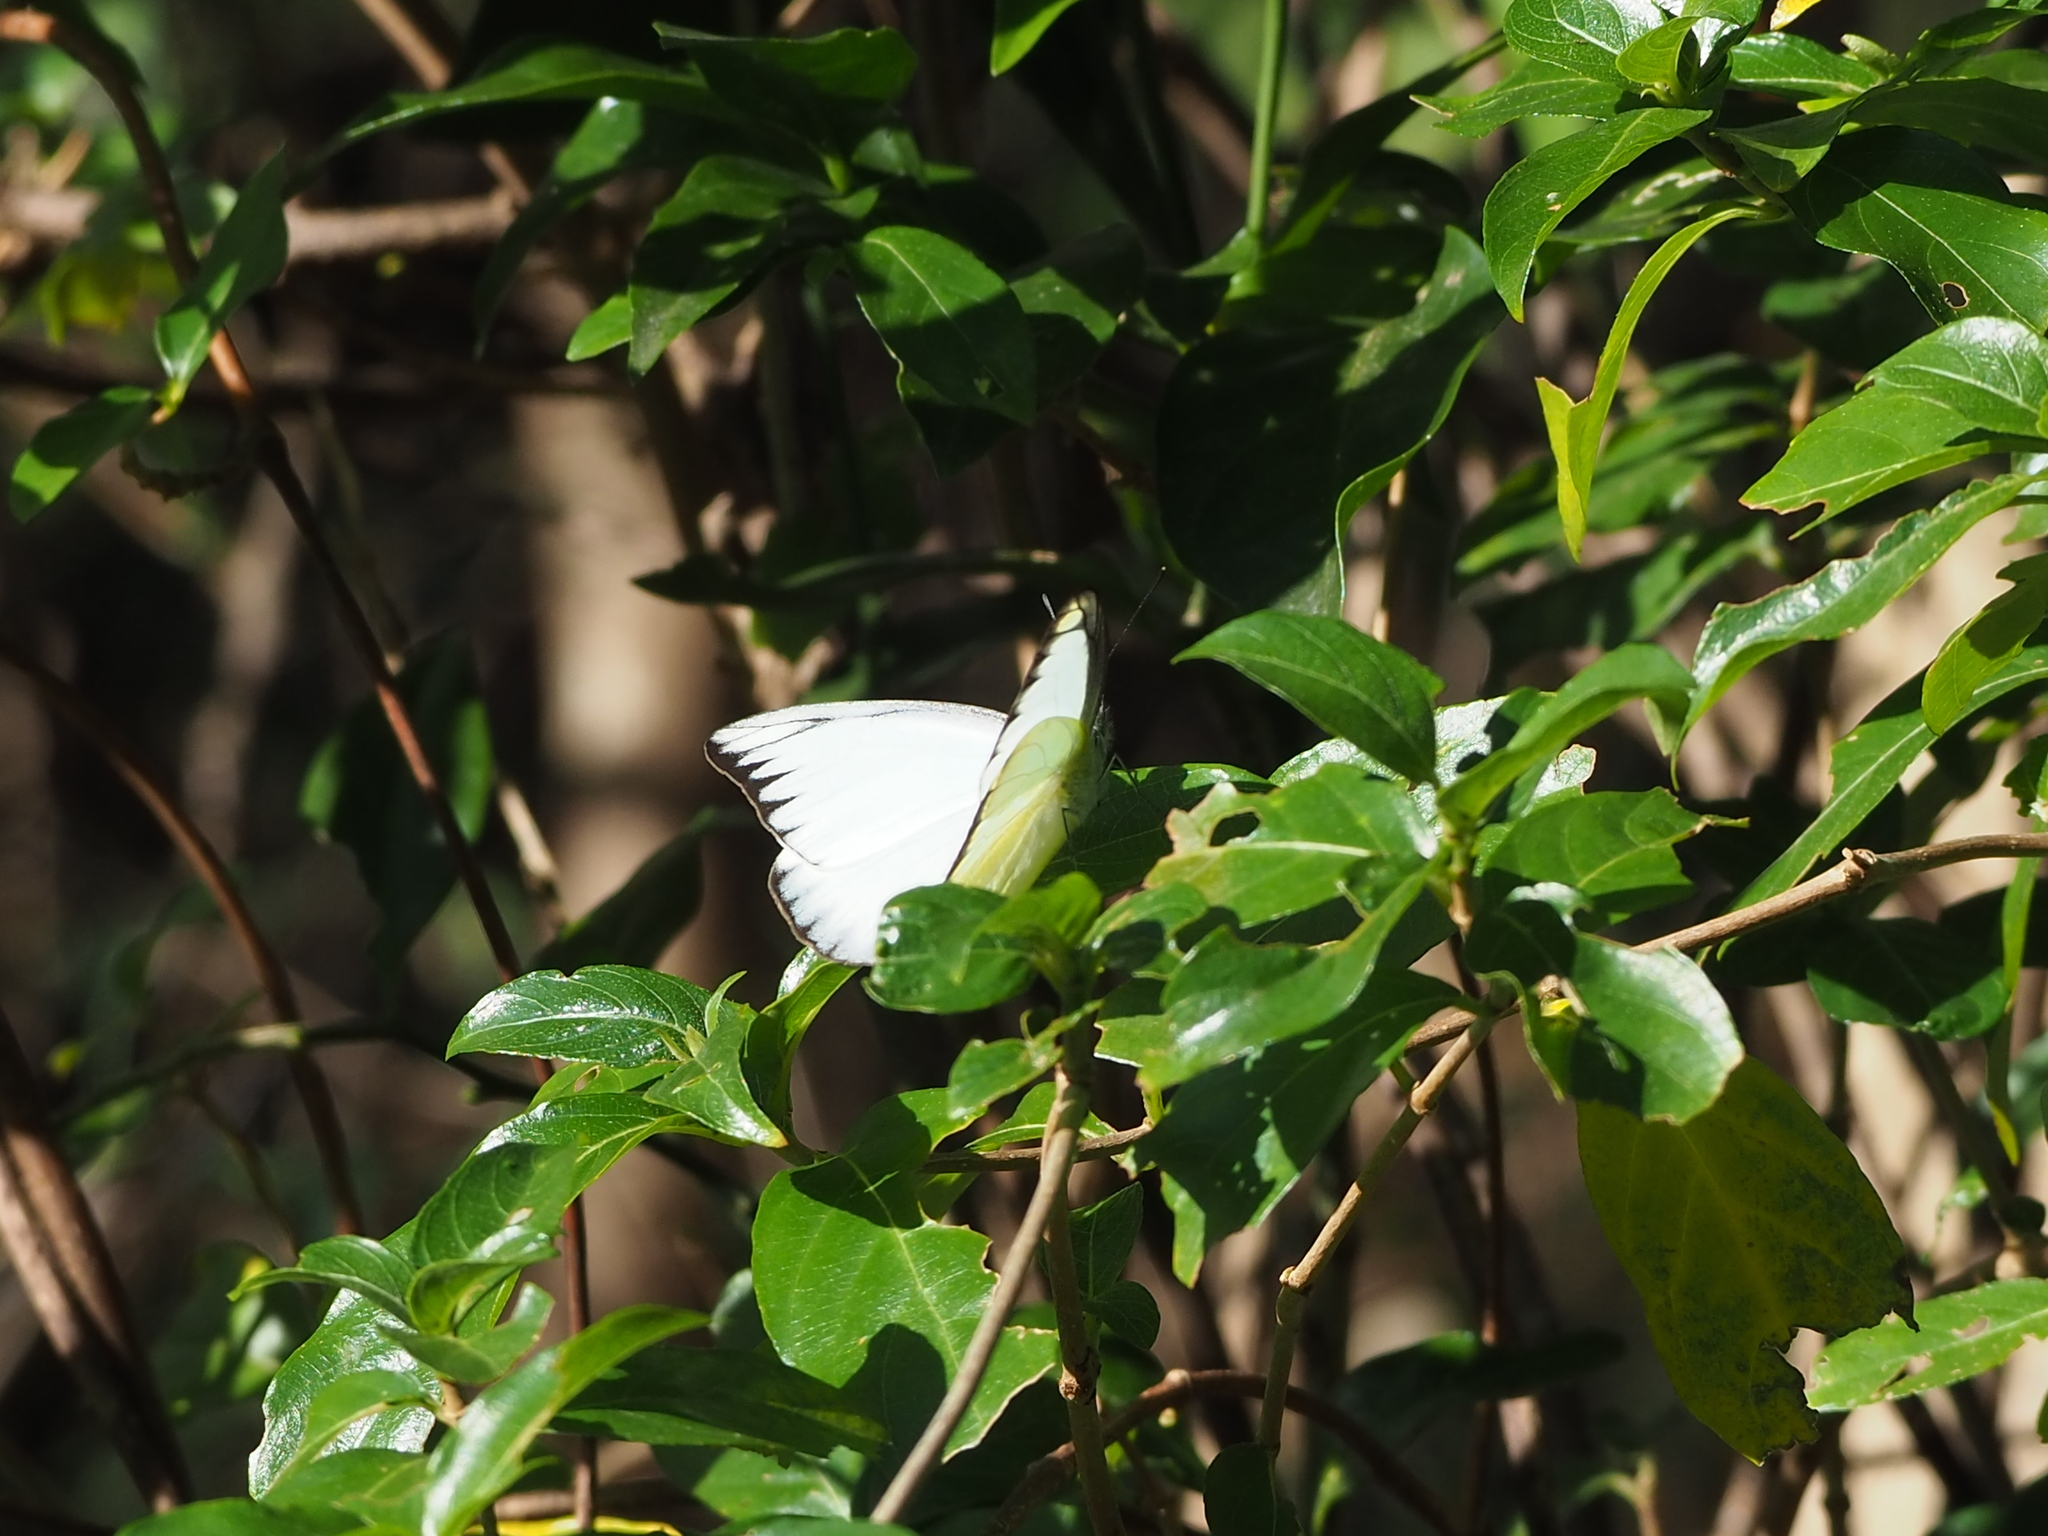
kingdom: Animalia
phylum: Arthropoda
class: Insecta
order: Lepidoptera
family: Pieridae
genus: Appias
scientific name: Appias lyncida
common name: Chocolate albatross
